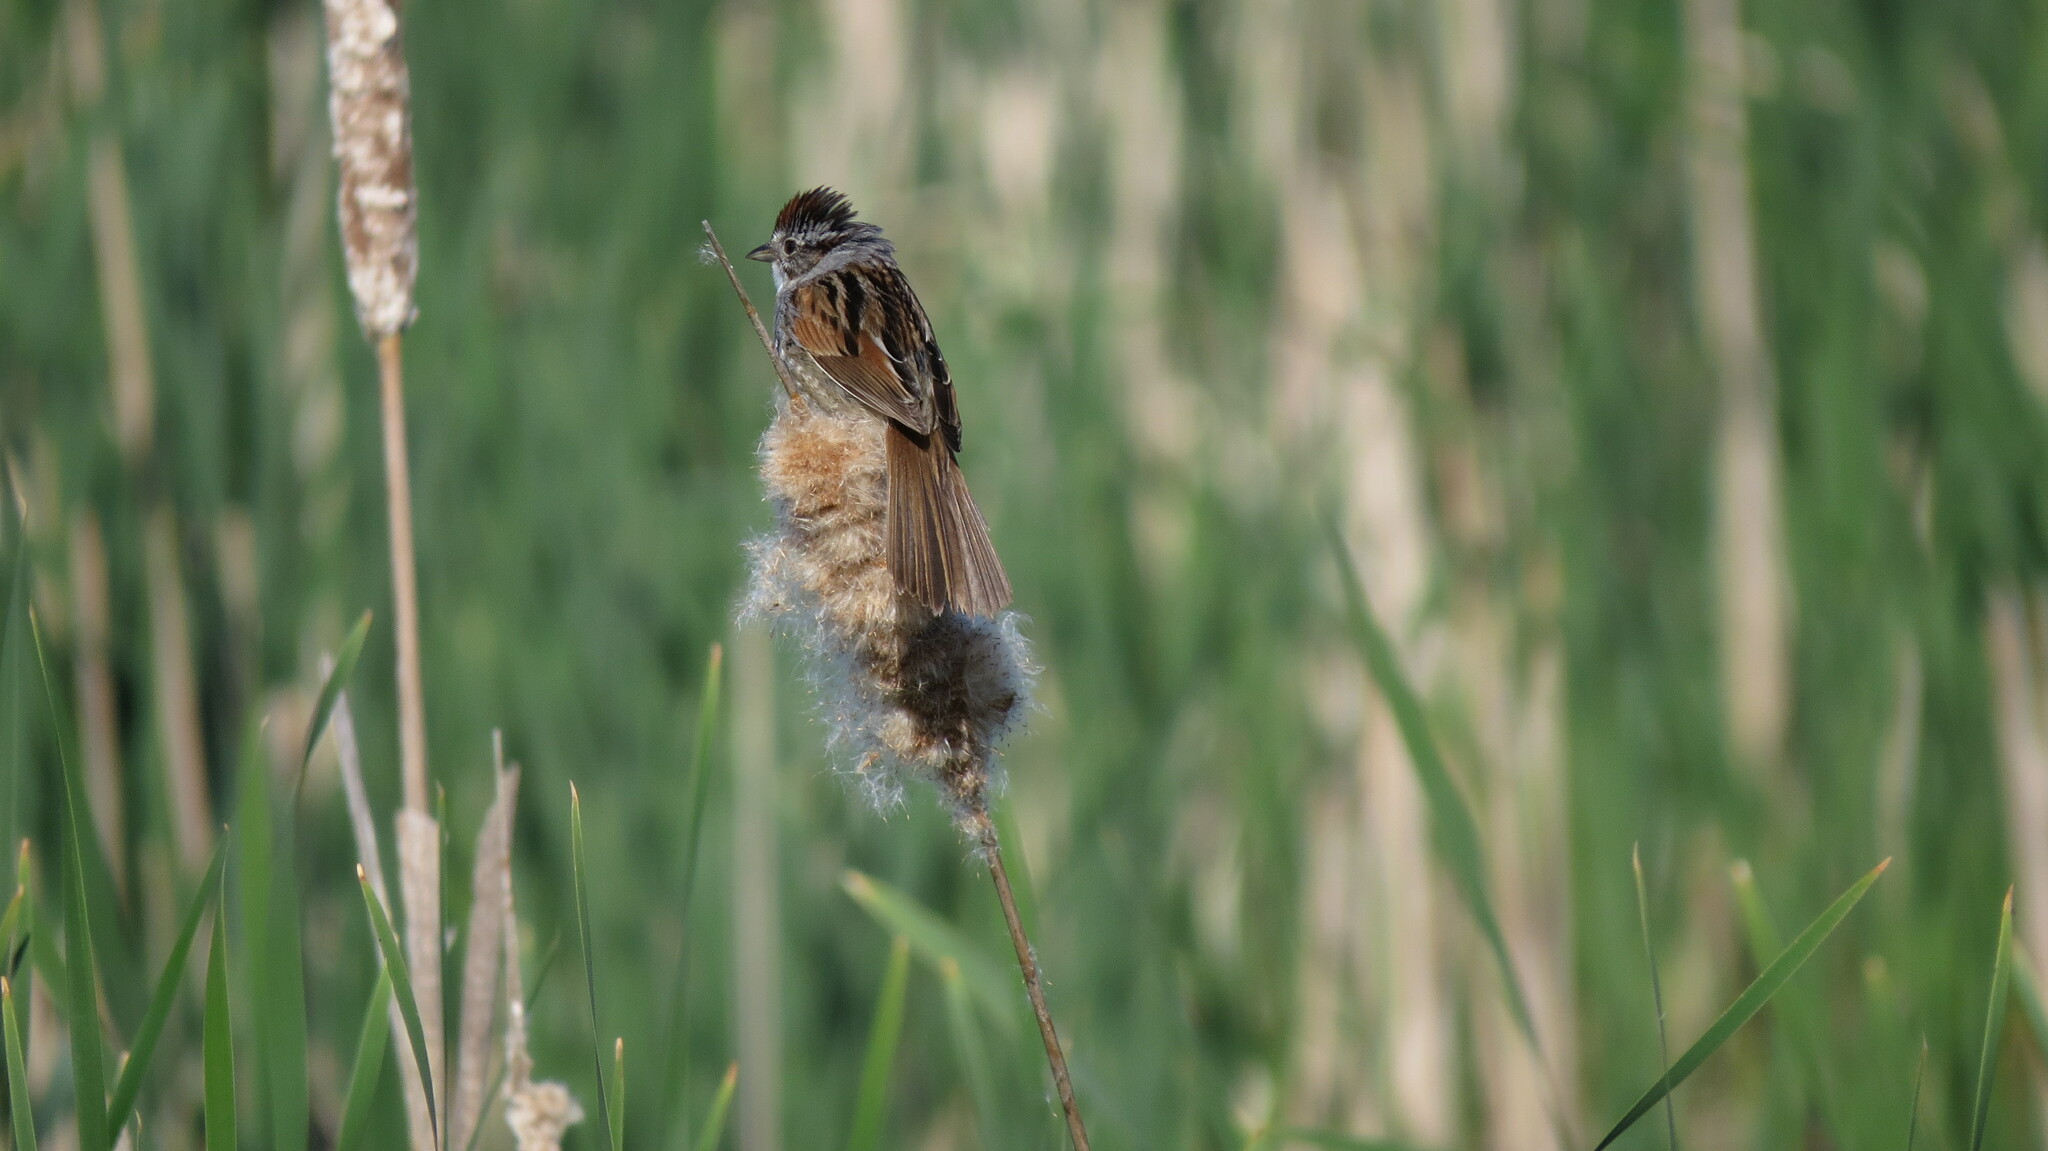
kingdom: Animalia
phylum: Chordata
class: Aves
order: Passeriformes
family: Passerellidae
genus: Melospiza
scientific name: Melospiza georgiana
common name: Swamp sparrow
